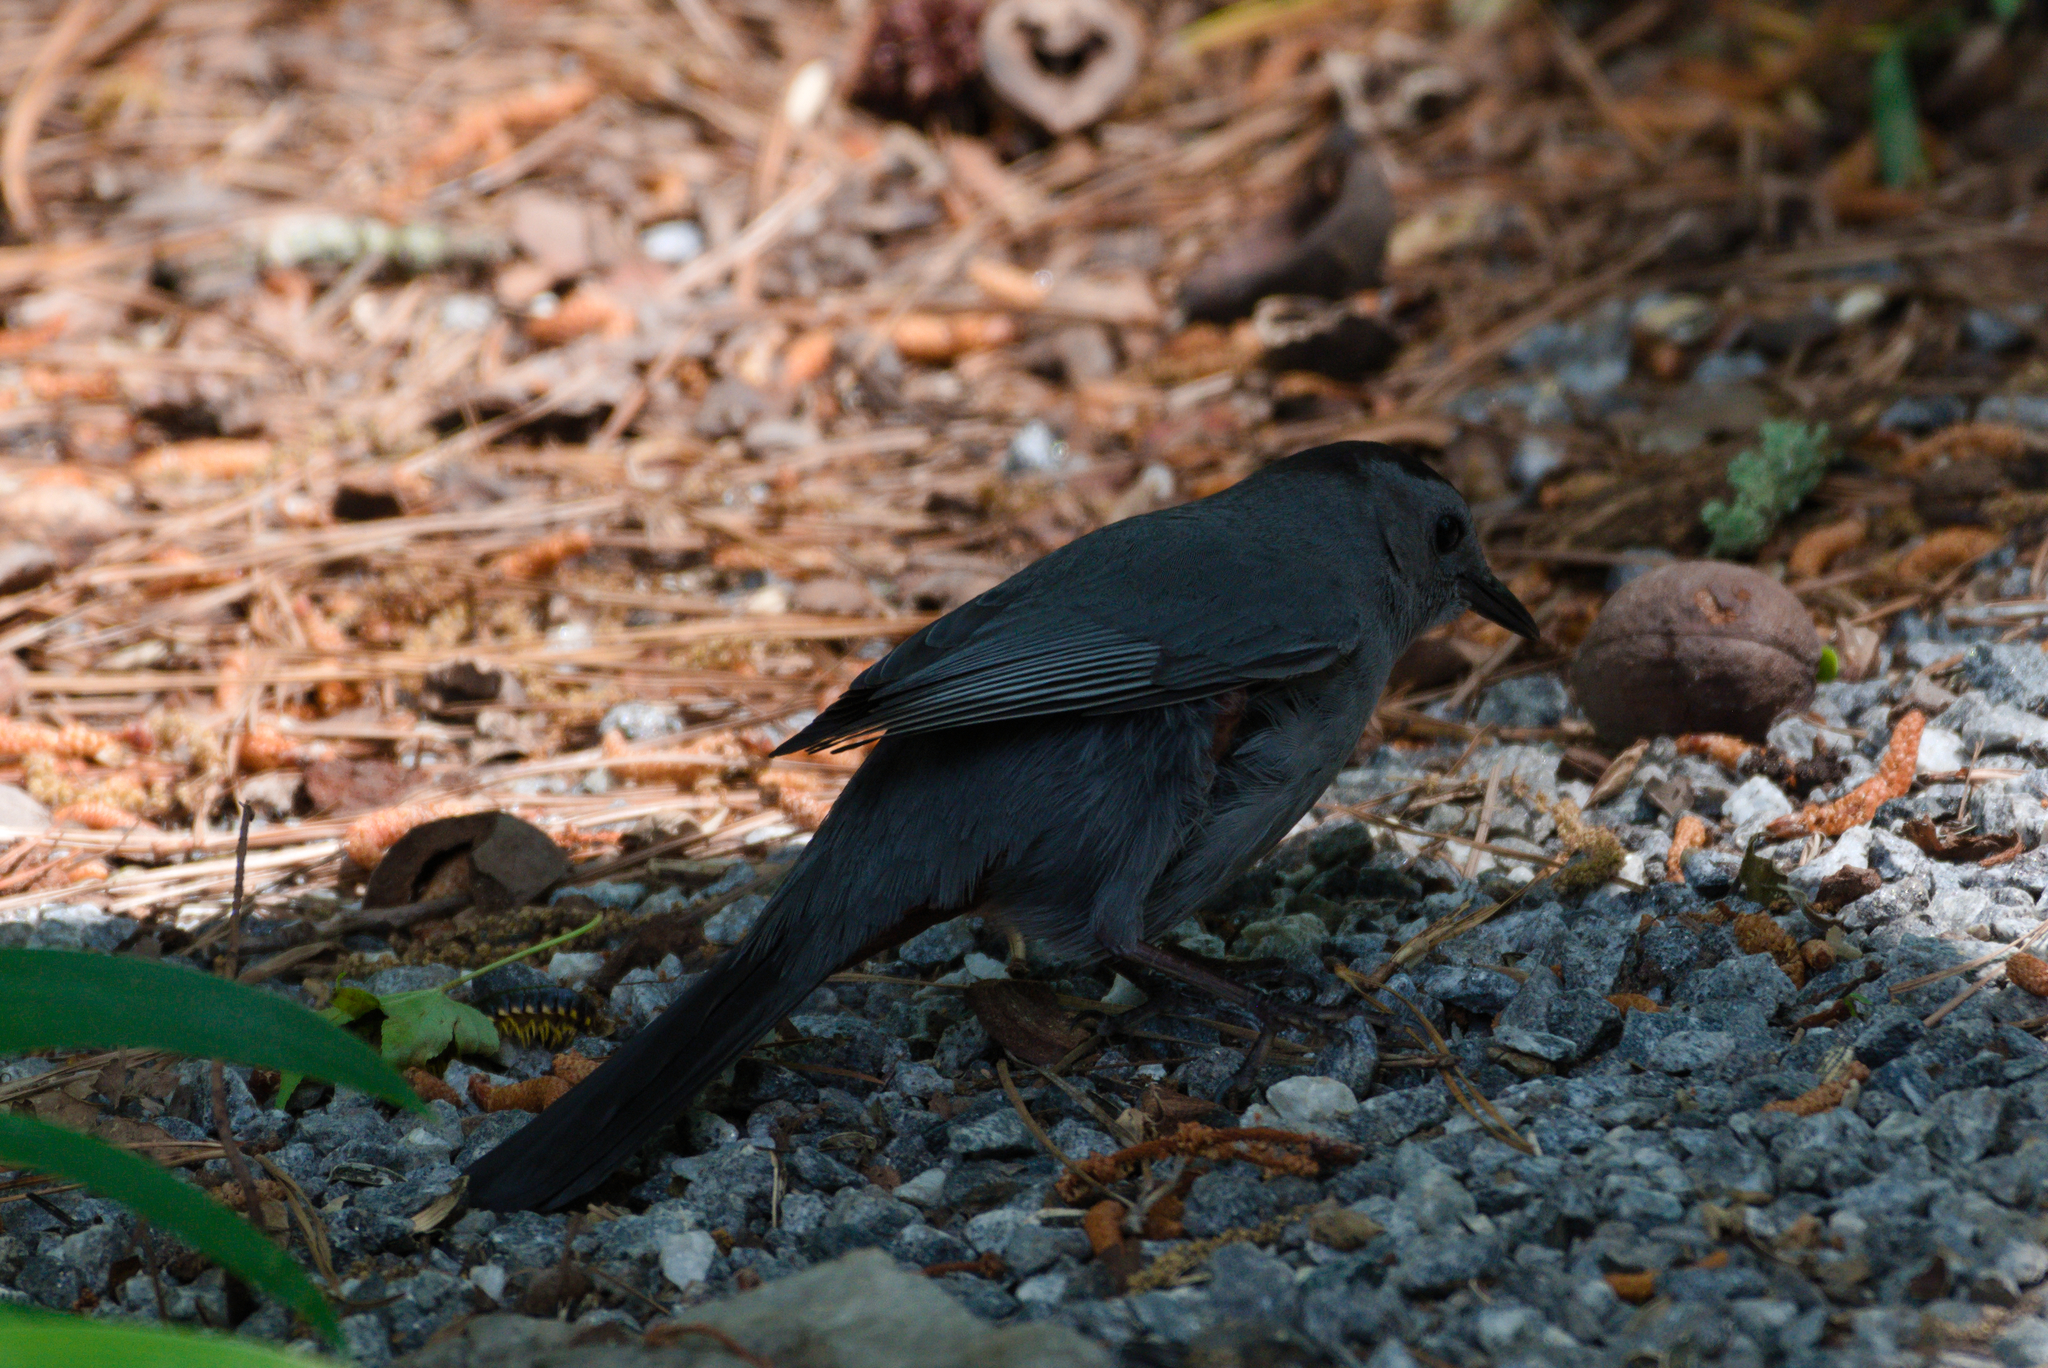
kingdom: Animalia
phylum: Chordata
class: Aves
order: Passeriformes
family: Mimidae
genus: Dumetella
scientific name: Dumetella carolinensis
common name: Gray catbird
